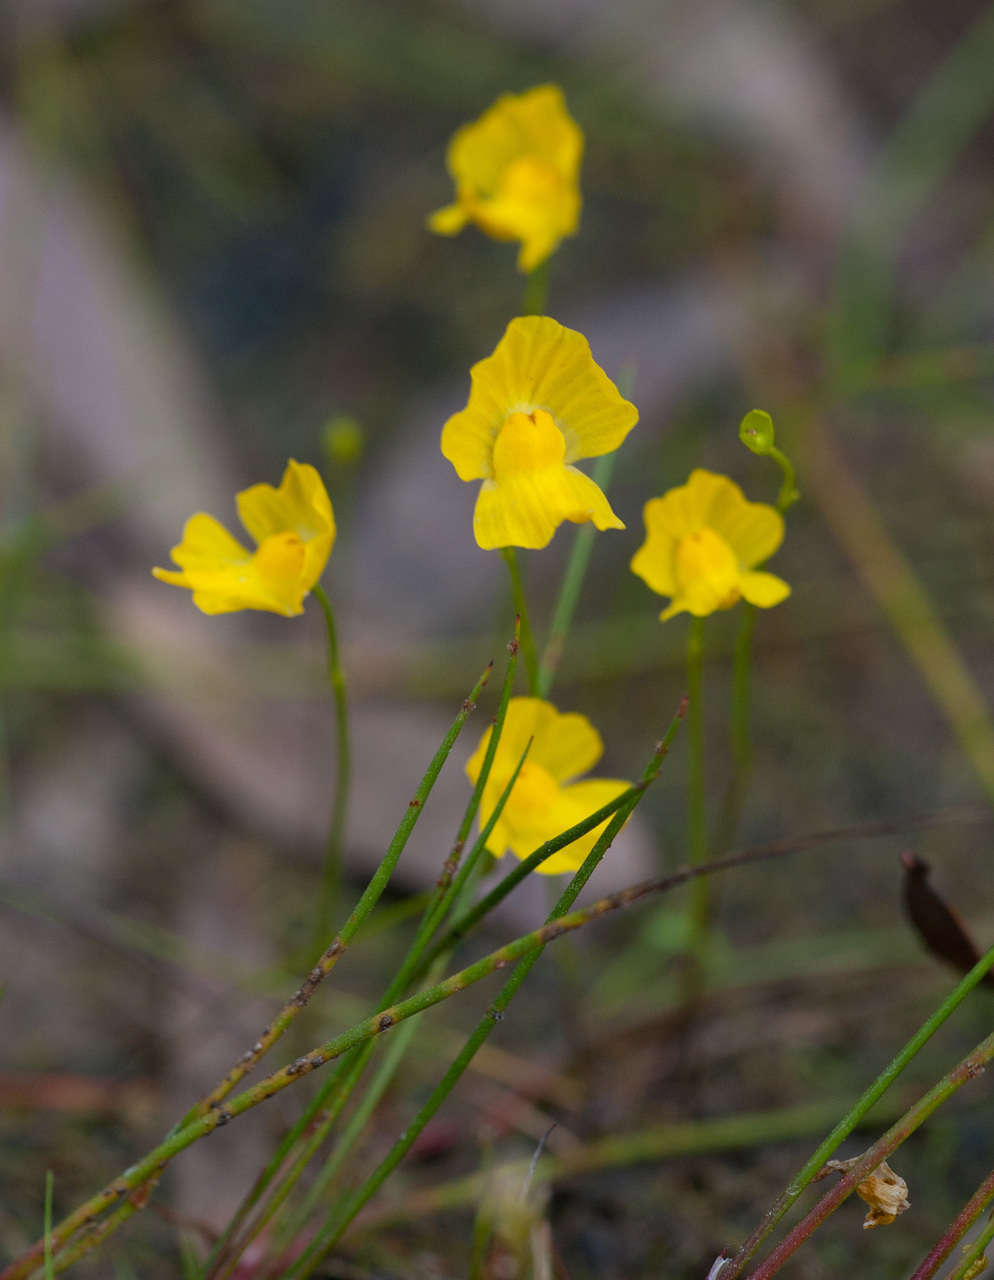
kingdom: Plantae
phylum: Tracheophyta
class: Magnoliopsida
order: Lamiales
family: Lentibulariaceae
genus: Utricularia
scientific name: Utricularia gibba
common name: Humped bladderwort
